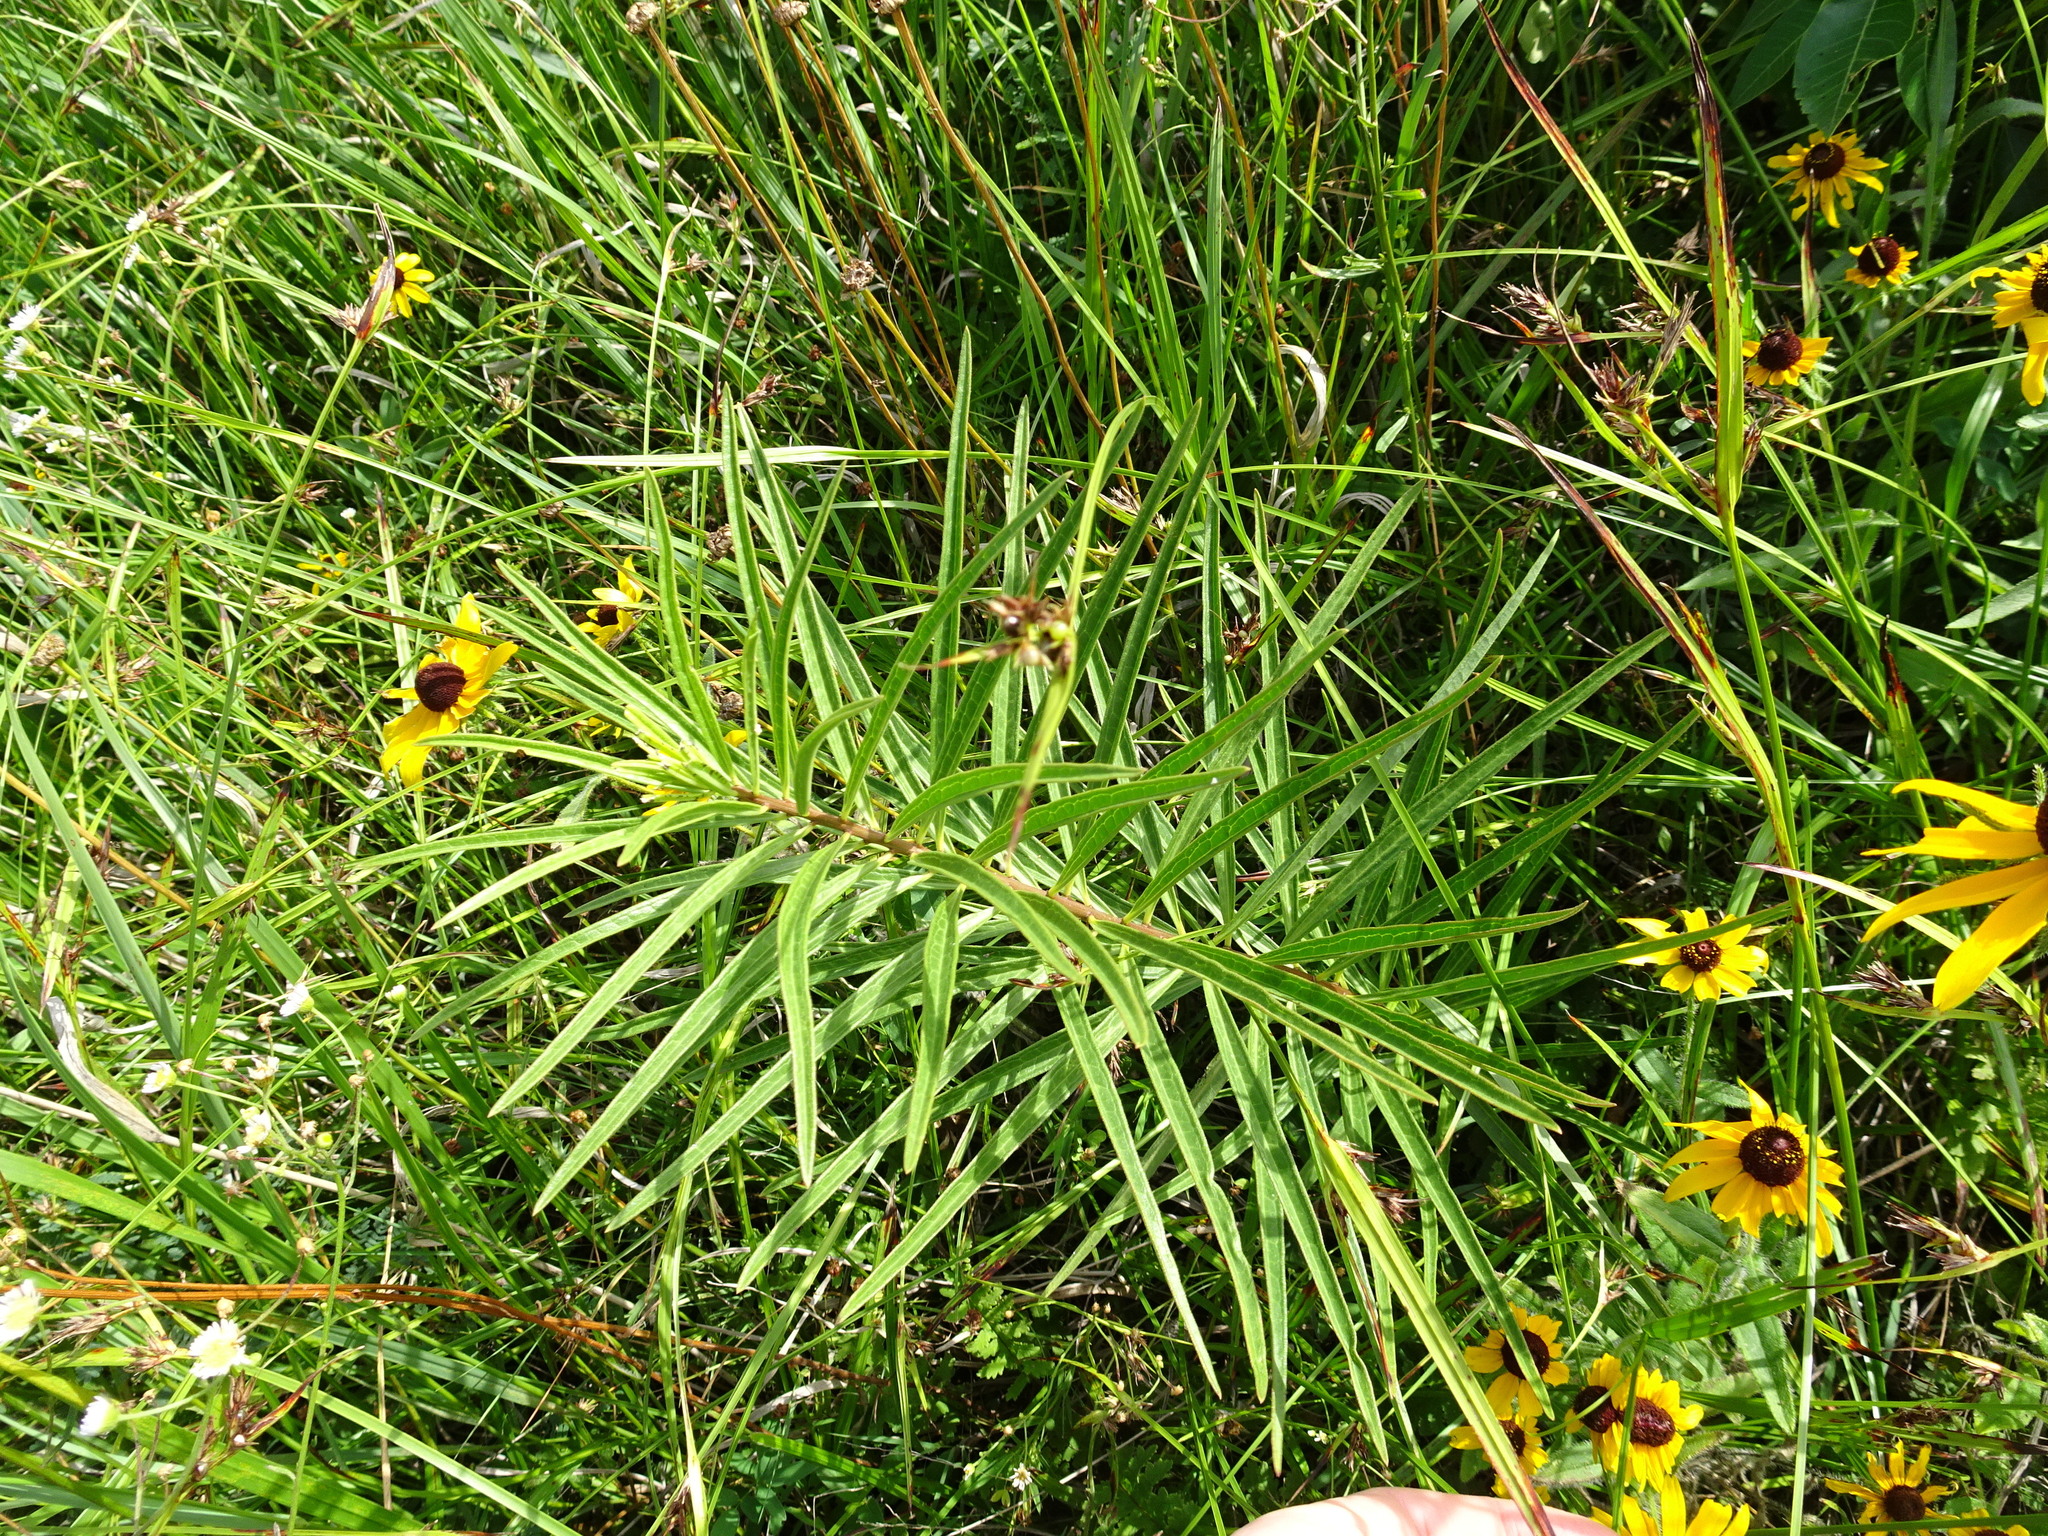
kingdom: Plantae
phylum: Tracheophyta
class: Magnoliopsida
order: Gentianales
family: Apocynaceae
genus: Asclepias
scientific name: Asclepias hirtella
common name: Prairie milkweed
